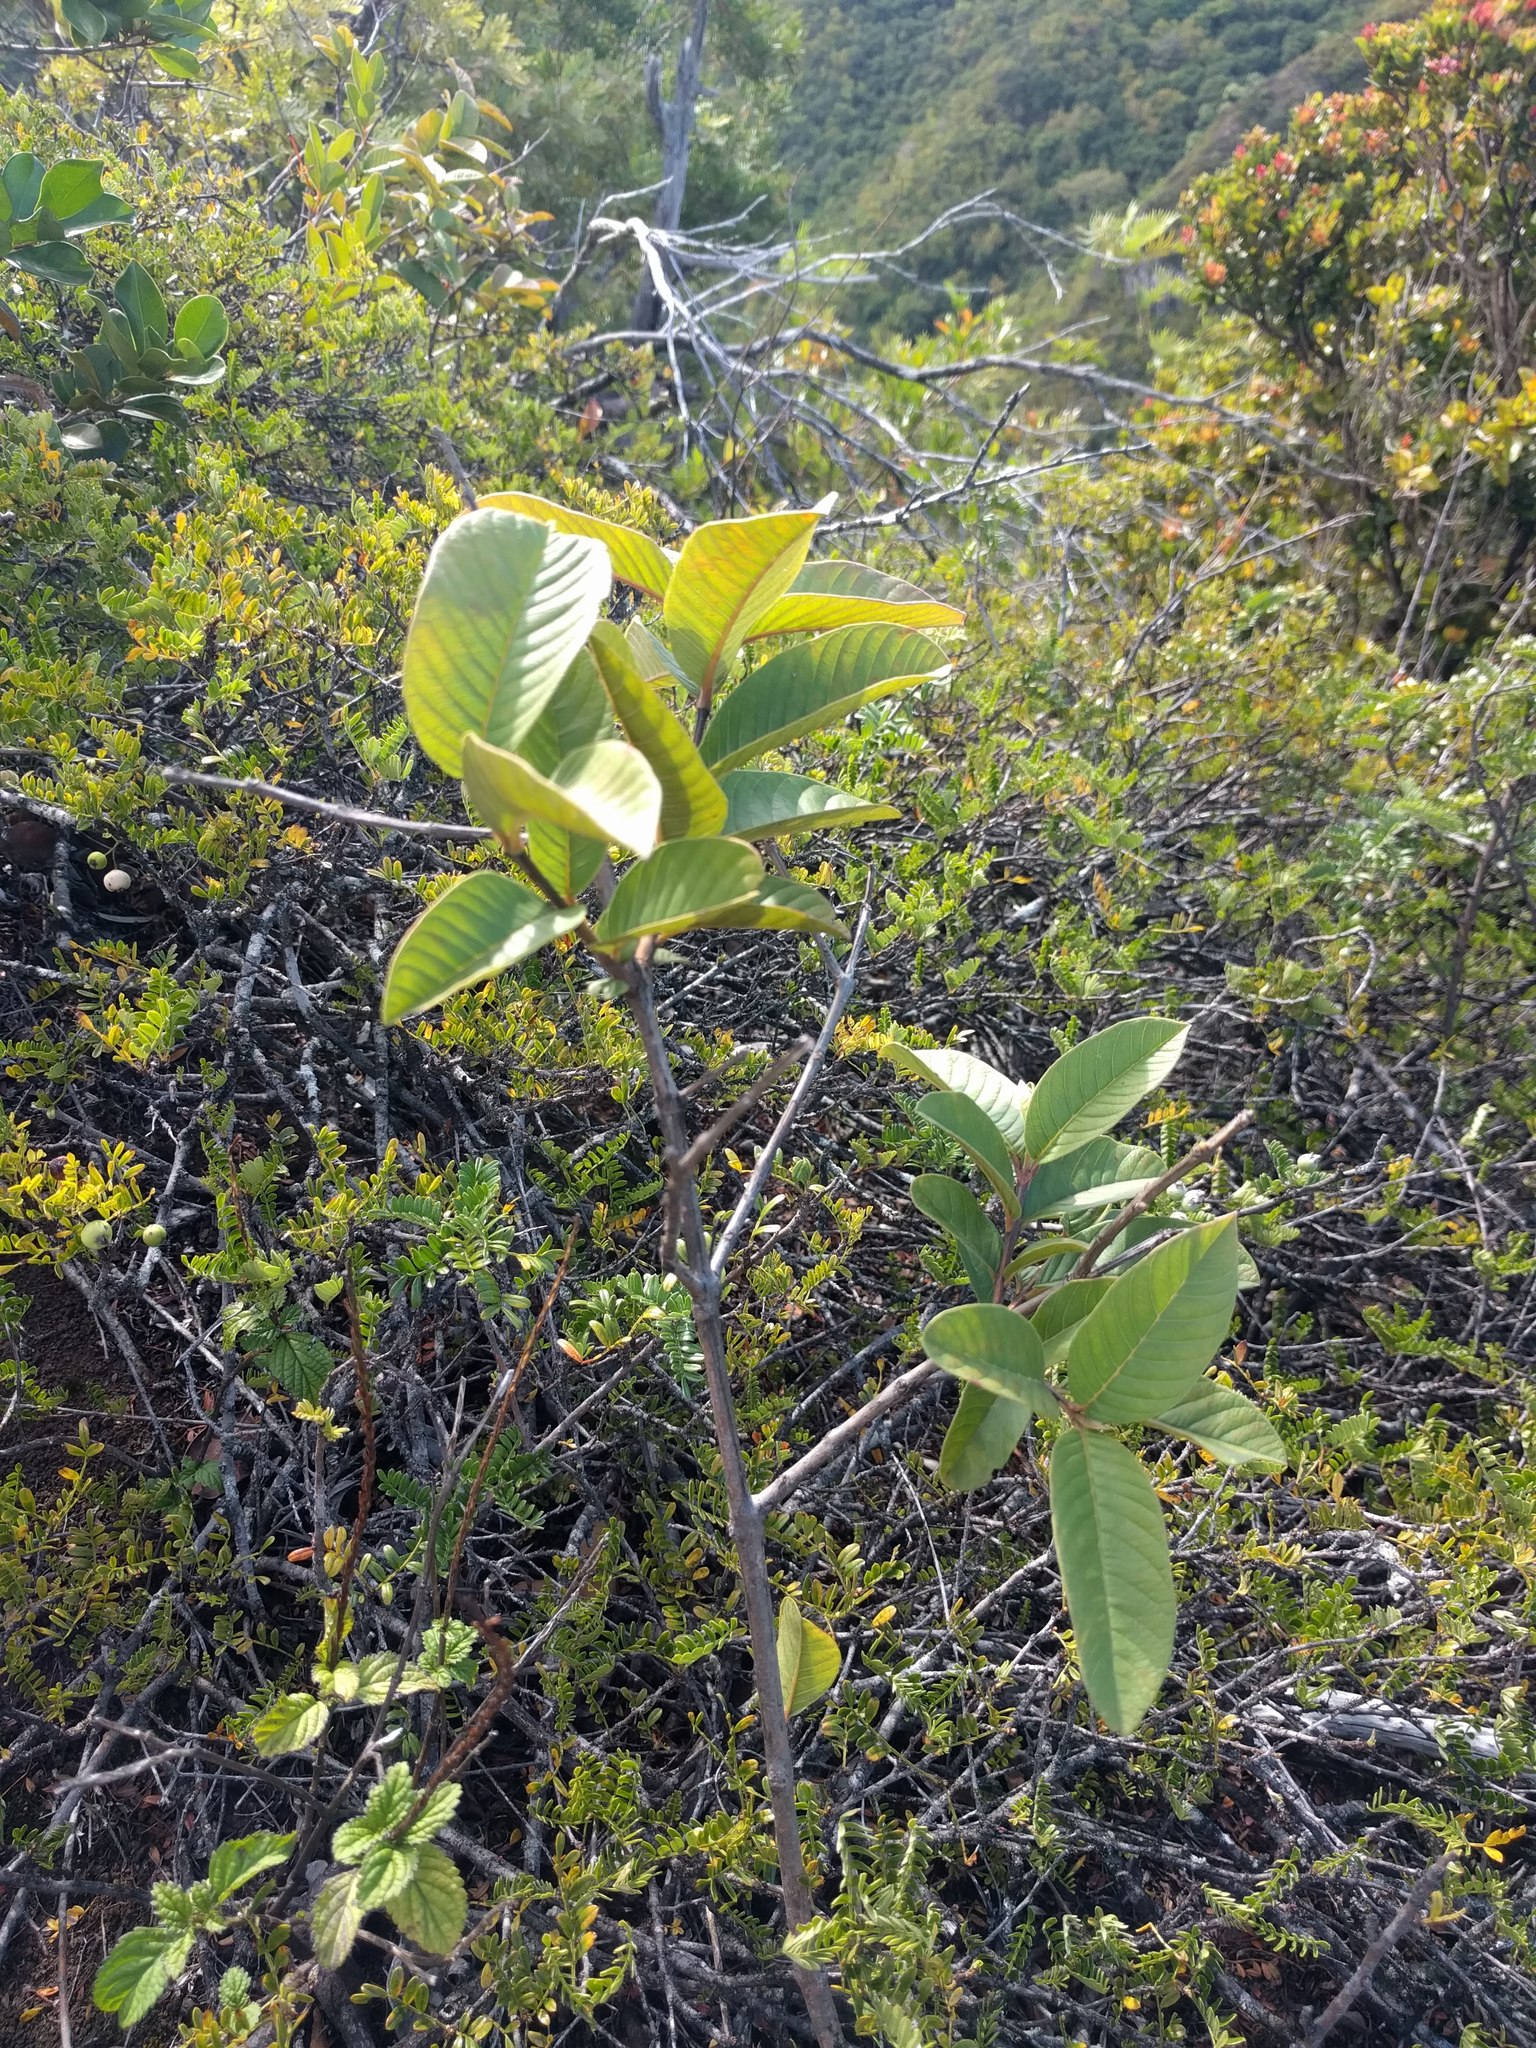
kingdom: Plantae
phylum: Tracheophyta
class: Magnoliopsida
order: Myrtales
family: Myrtaceae
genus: Psidium
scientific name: Psidium guajava
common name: Guava
